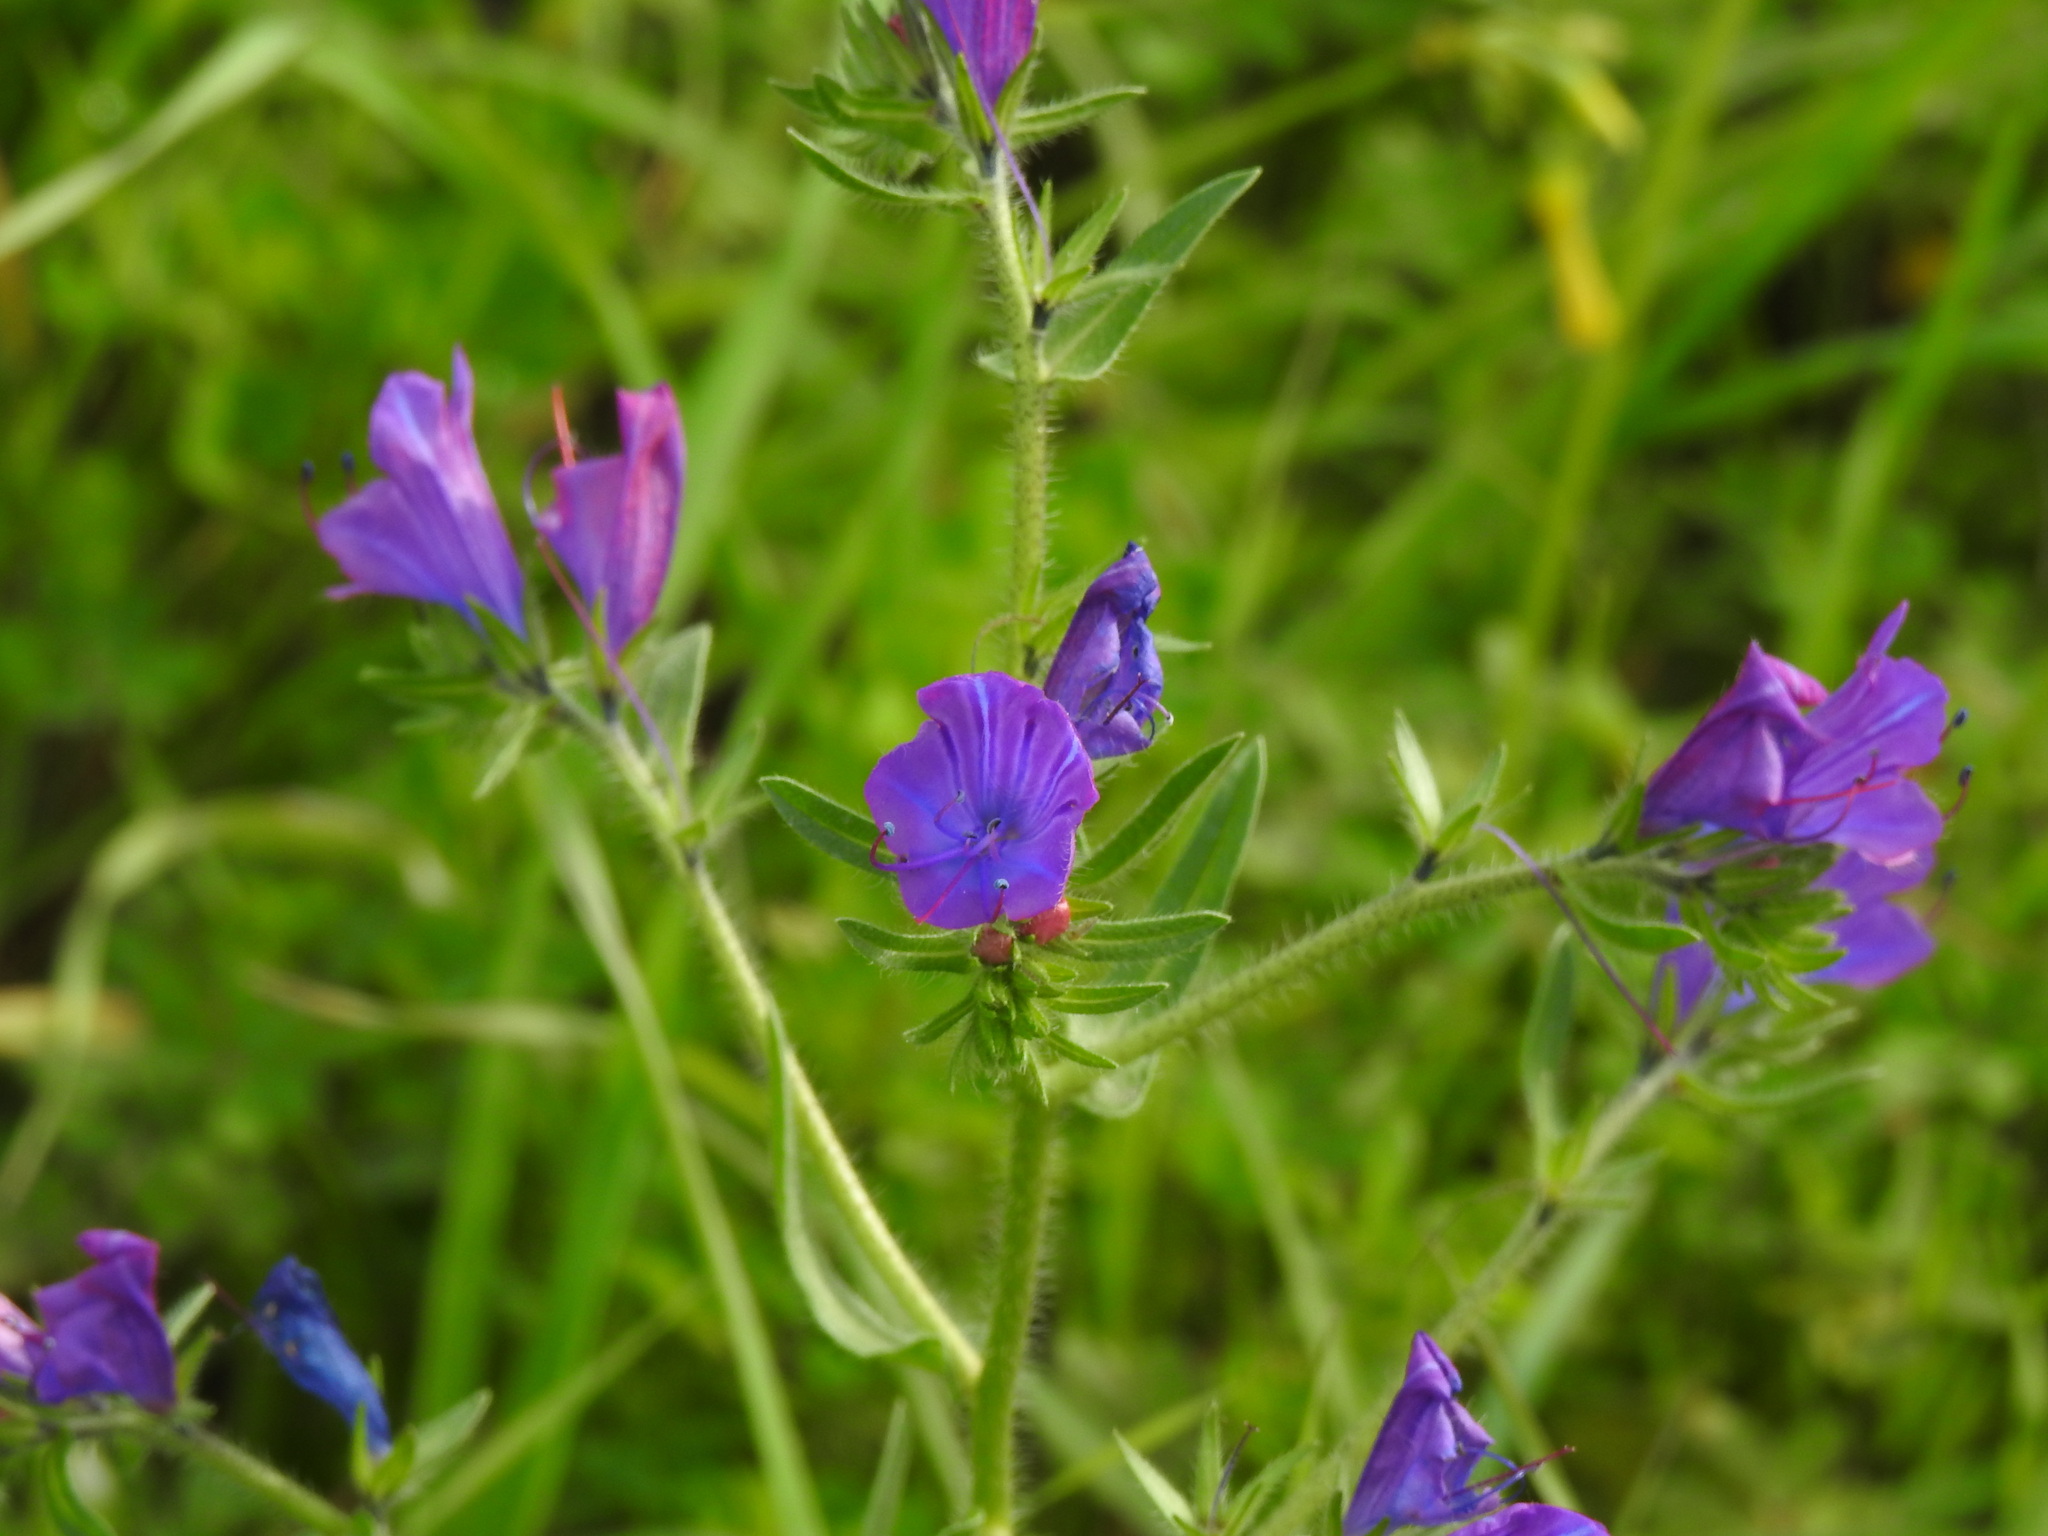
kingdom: Plantae
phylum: Tracheophyta
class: Magnoliopsida
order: Boraginales
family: Boraginaceae
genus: Echium
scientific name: Echium plantagineum
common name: Purple viper's-bugloss
